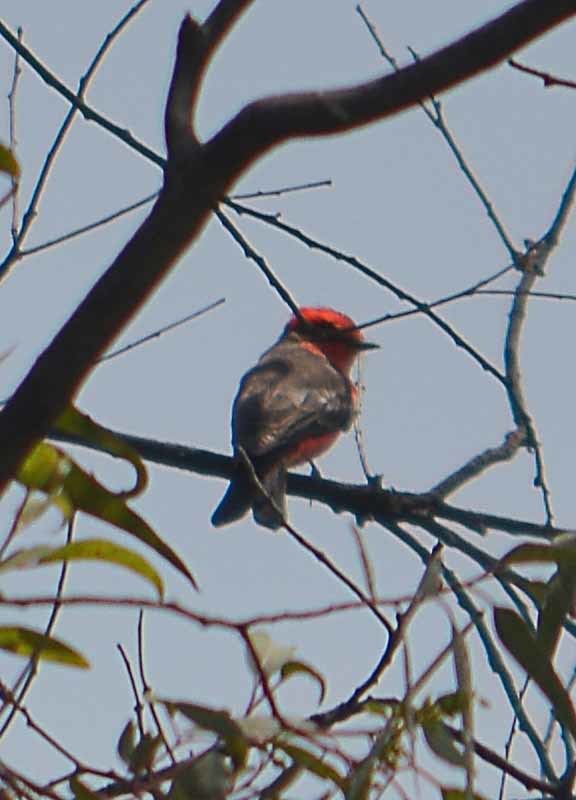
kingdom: Animalia
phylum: Chordata
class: Aves
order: Passeriformes
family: Tyrannidae
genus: Pyrocephalus
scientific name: Pyrocephalus rubinus
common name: Vermilion flycatcher
